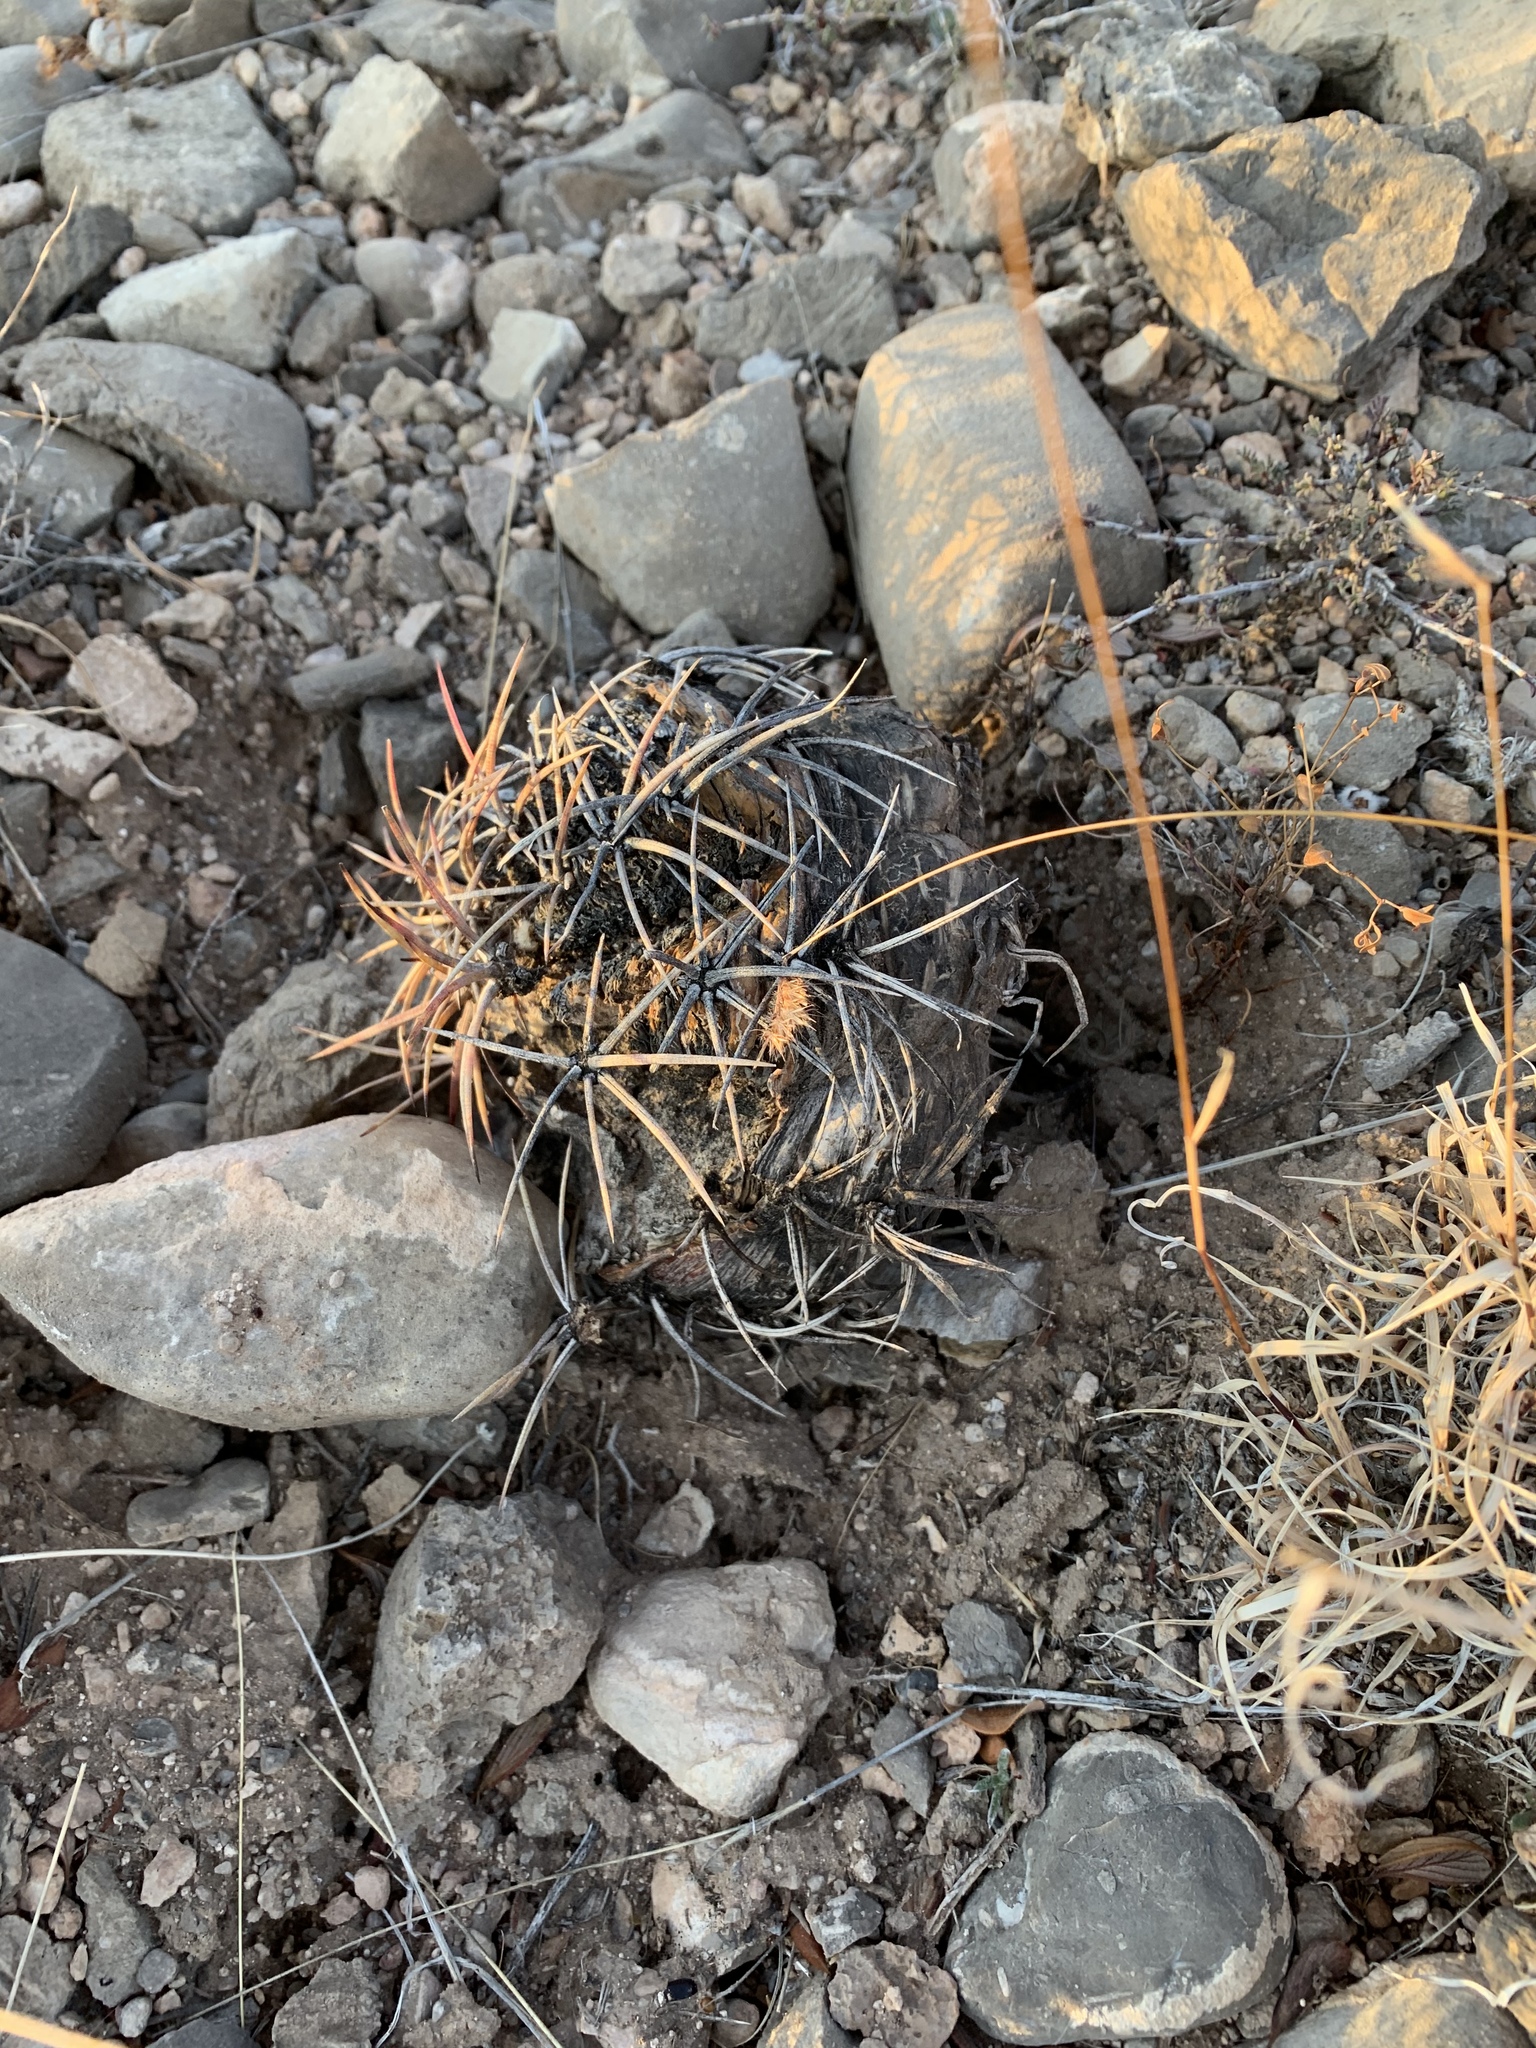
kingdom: Plantae
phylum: Tracheophyta
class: Magnoliopsida
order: Caryophyllales
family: Cactaceae
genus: Echinocactus
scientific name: Echinocactus horizonthalonius
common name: Devilshead
